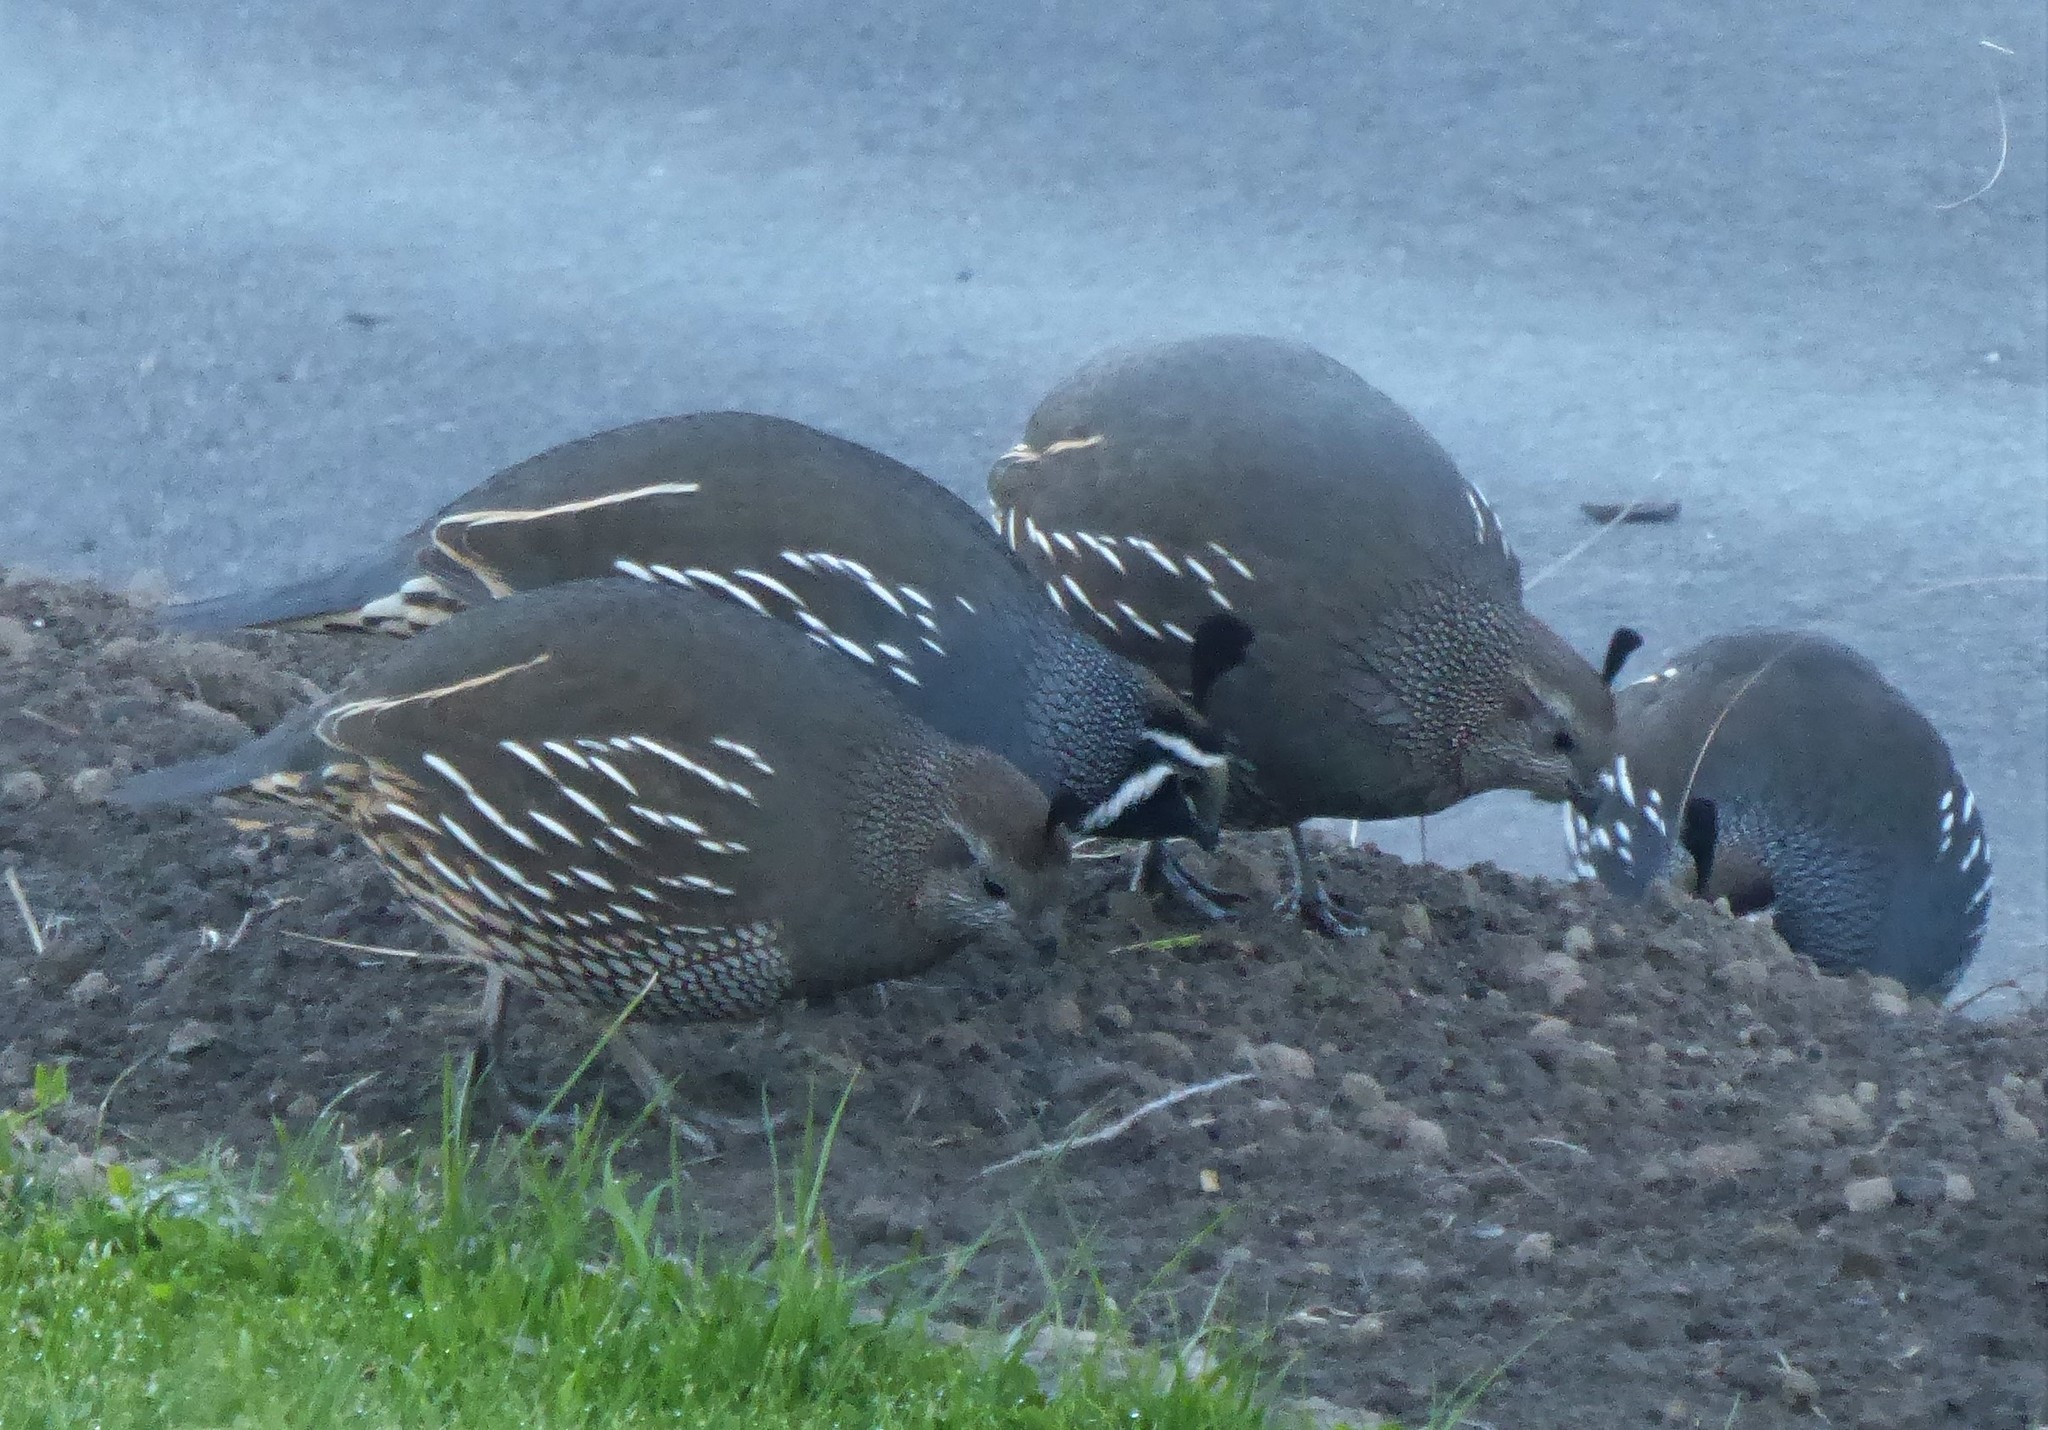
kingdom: Animalia
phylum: Chordata
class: Aves
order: Galliformes
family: Odontophoridae
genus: Callipepla
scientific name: Callipepla californica
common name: California quail
